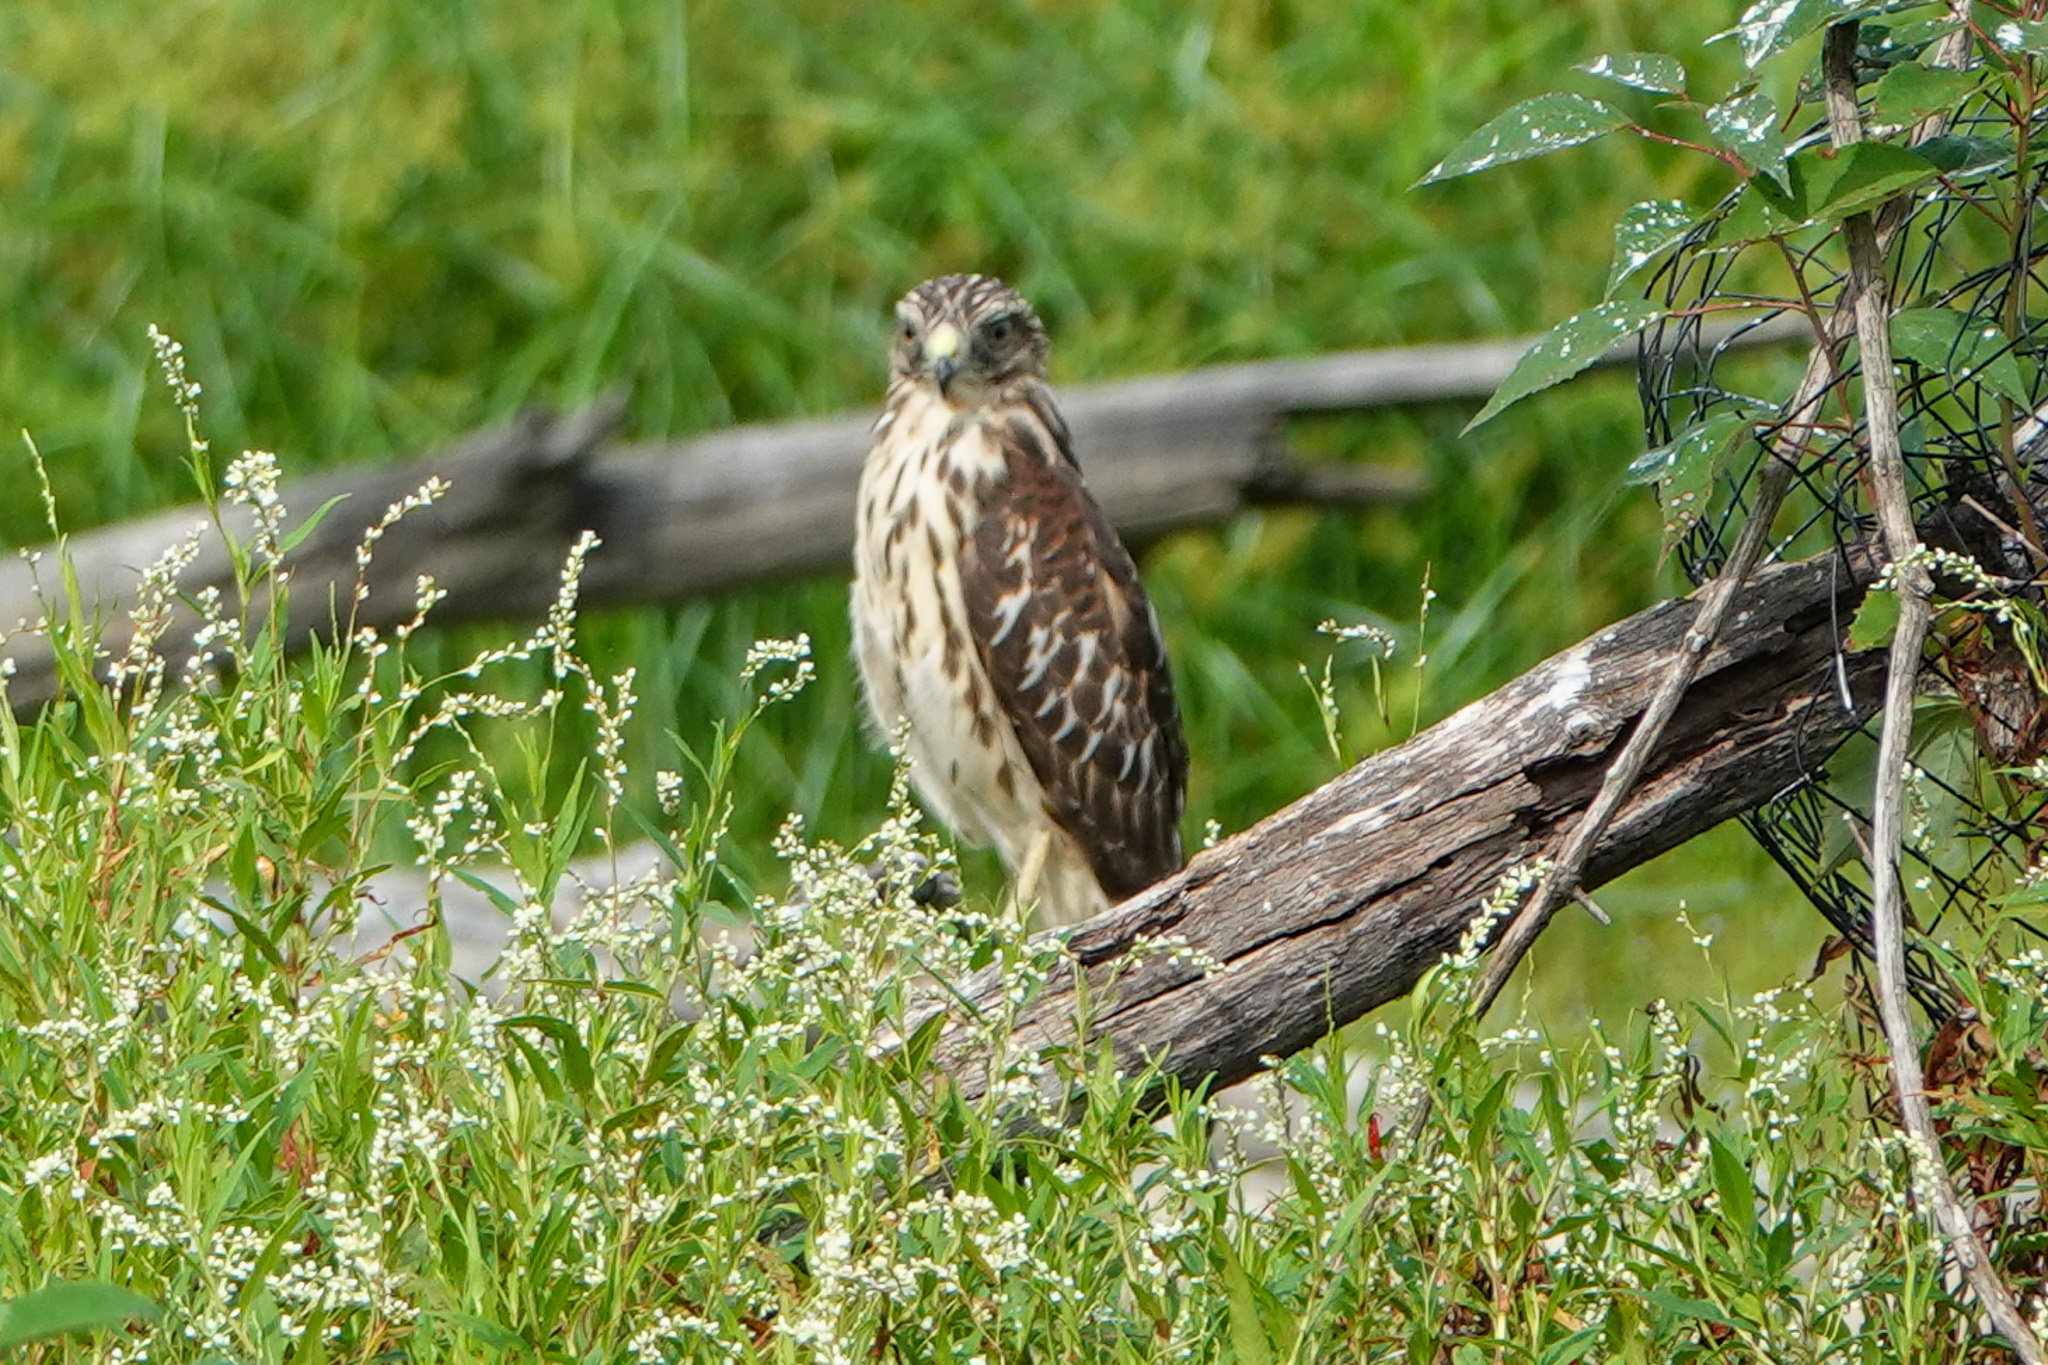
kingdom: Animalia
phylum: Chordata
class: Aves
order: Accipitriformes
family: Accipitridae
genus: Buteo
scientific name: Buteo lineatus
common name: Red-shouldered hawk
